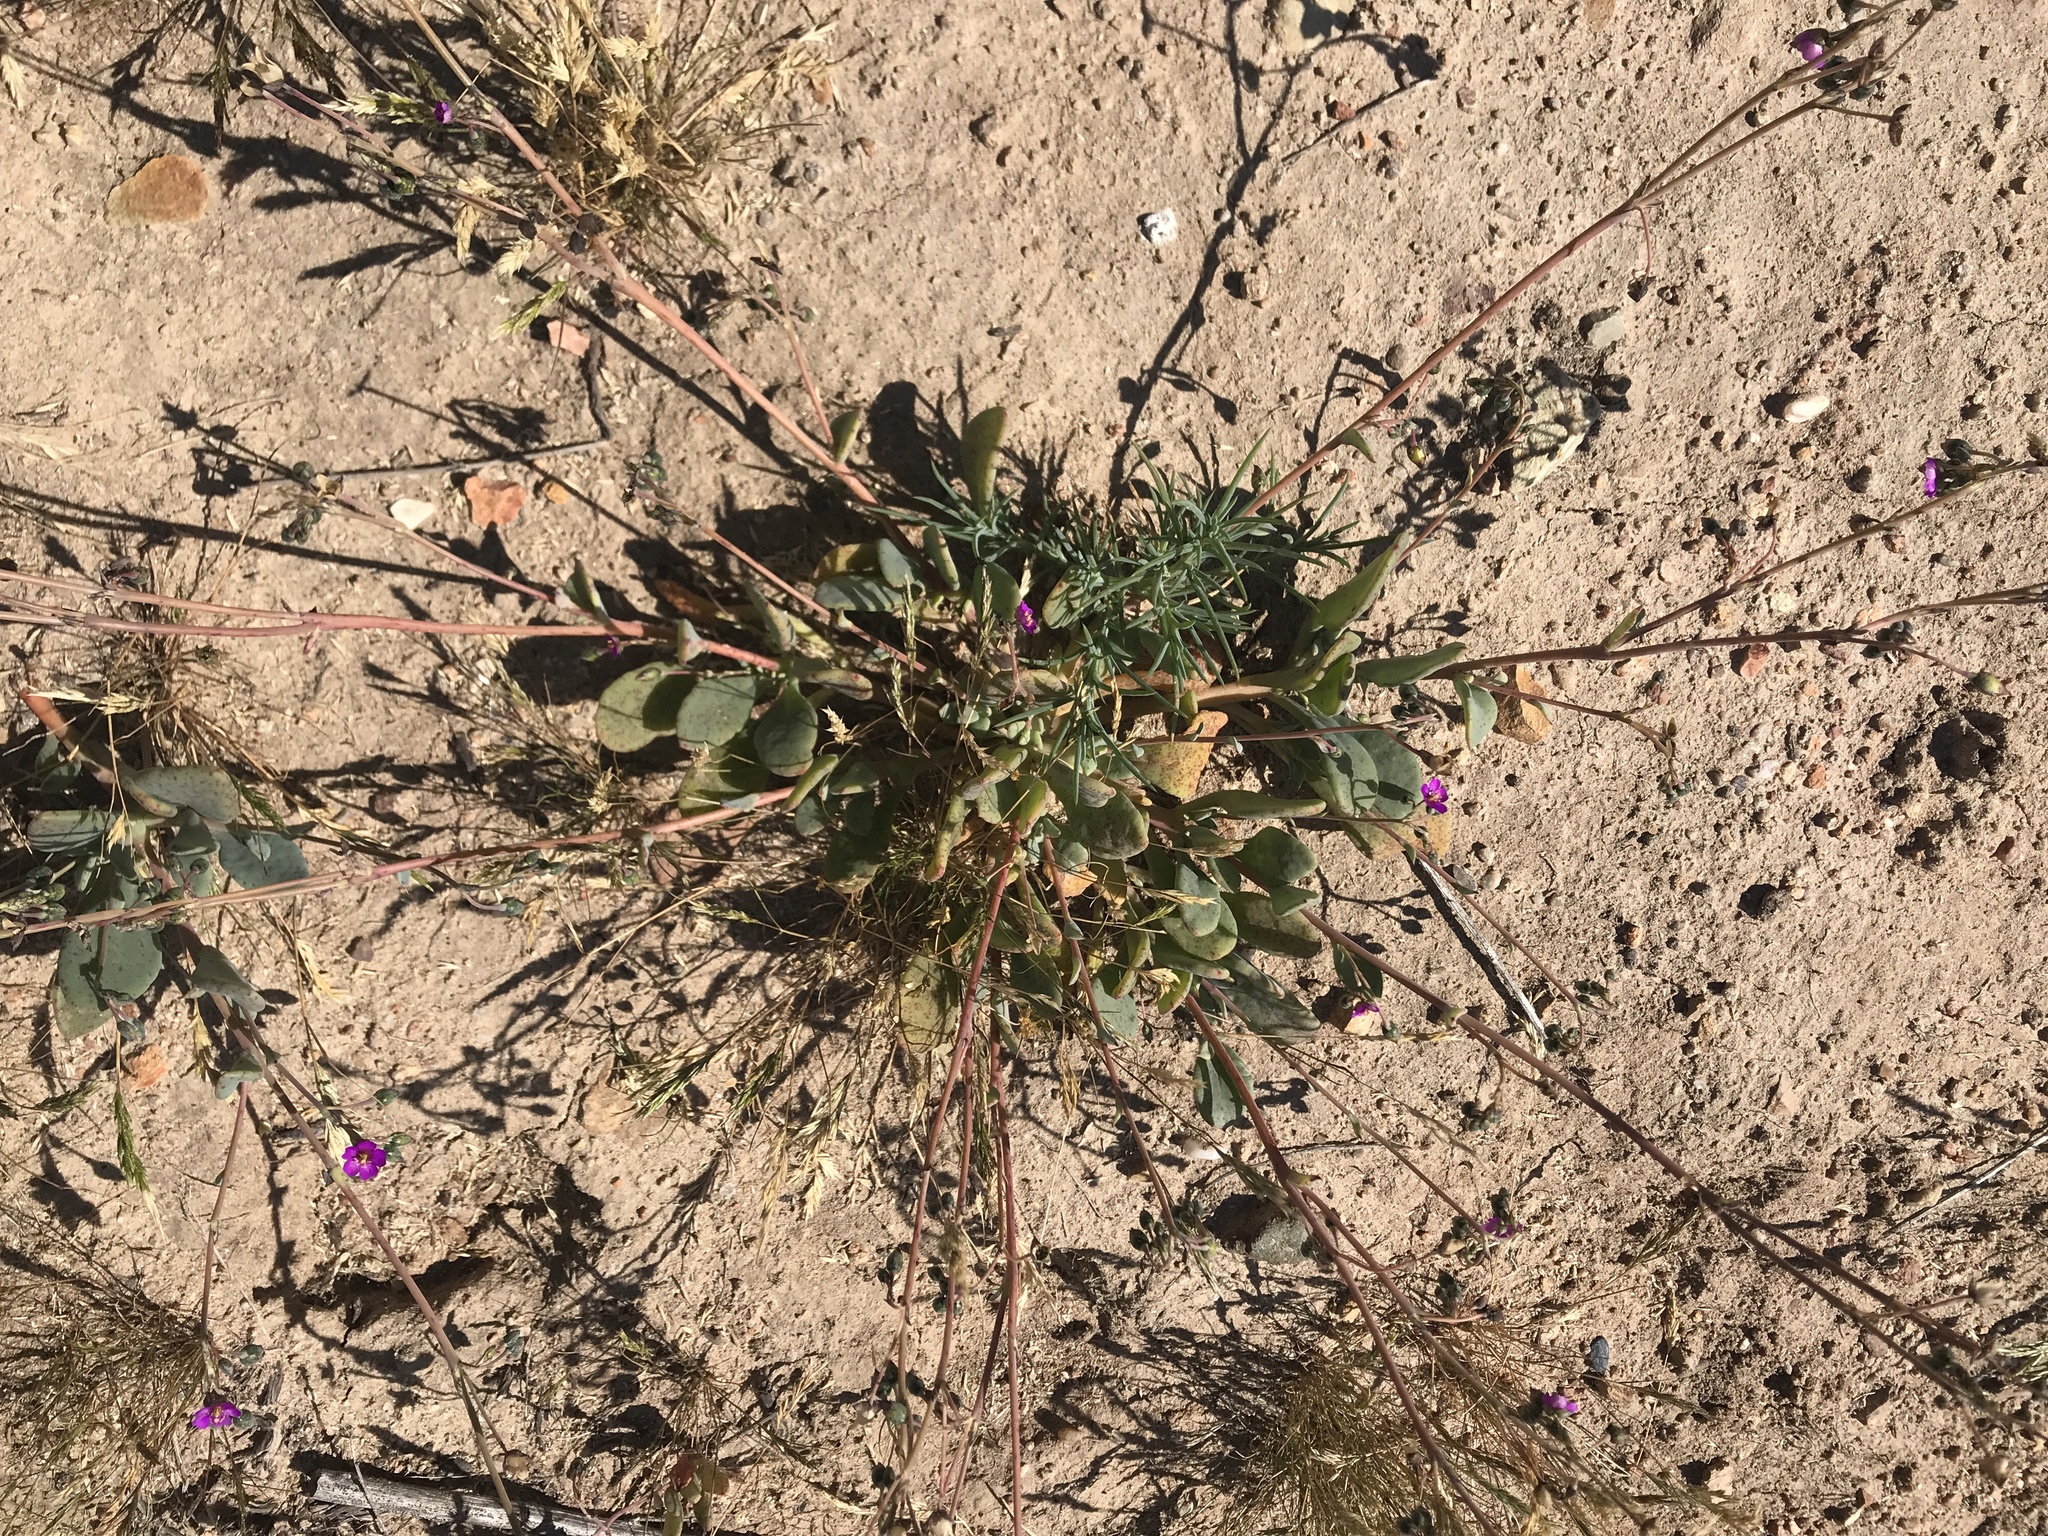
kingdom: Plantae
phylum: Tracheophyta
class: Magnoliopsida
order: Caryophyllales
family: Montiaceae
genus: Cistanthe
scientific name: Cistanthe maritima
